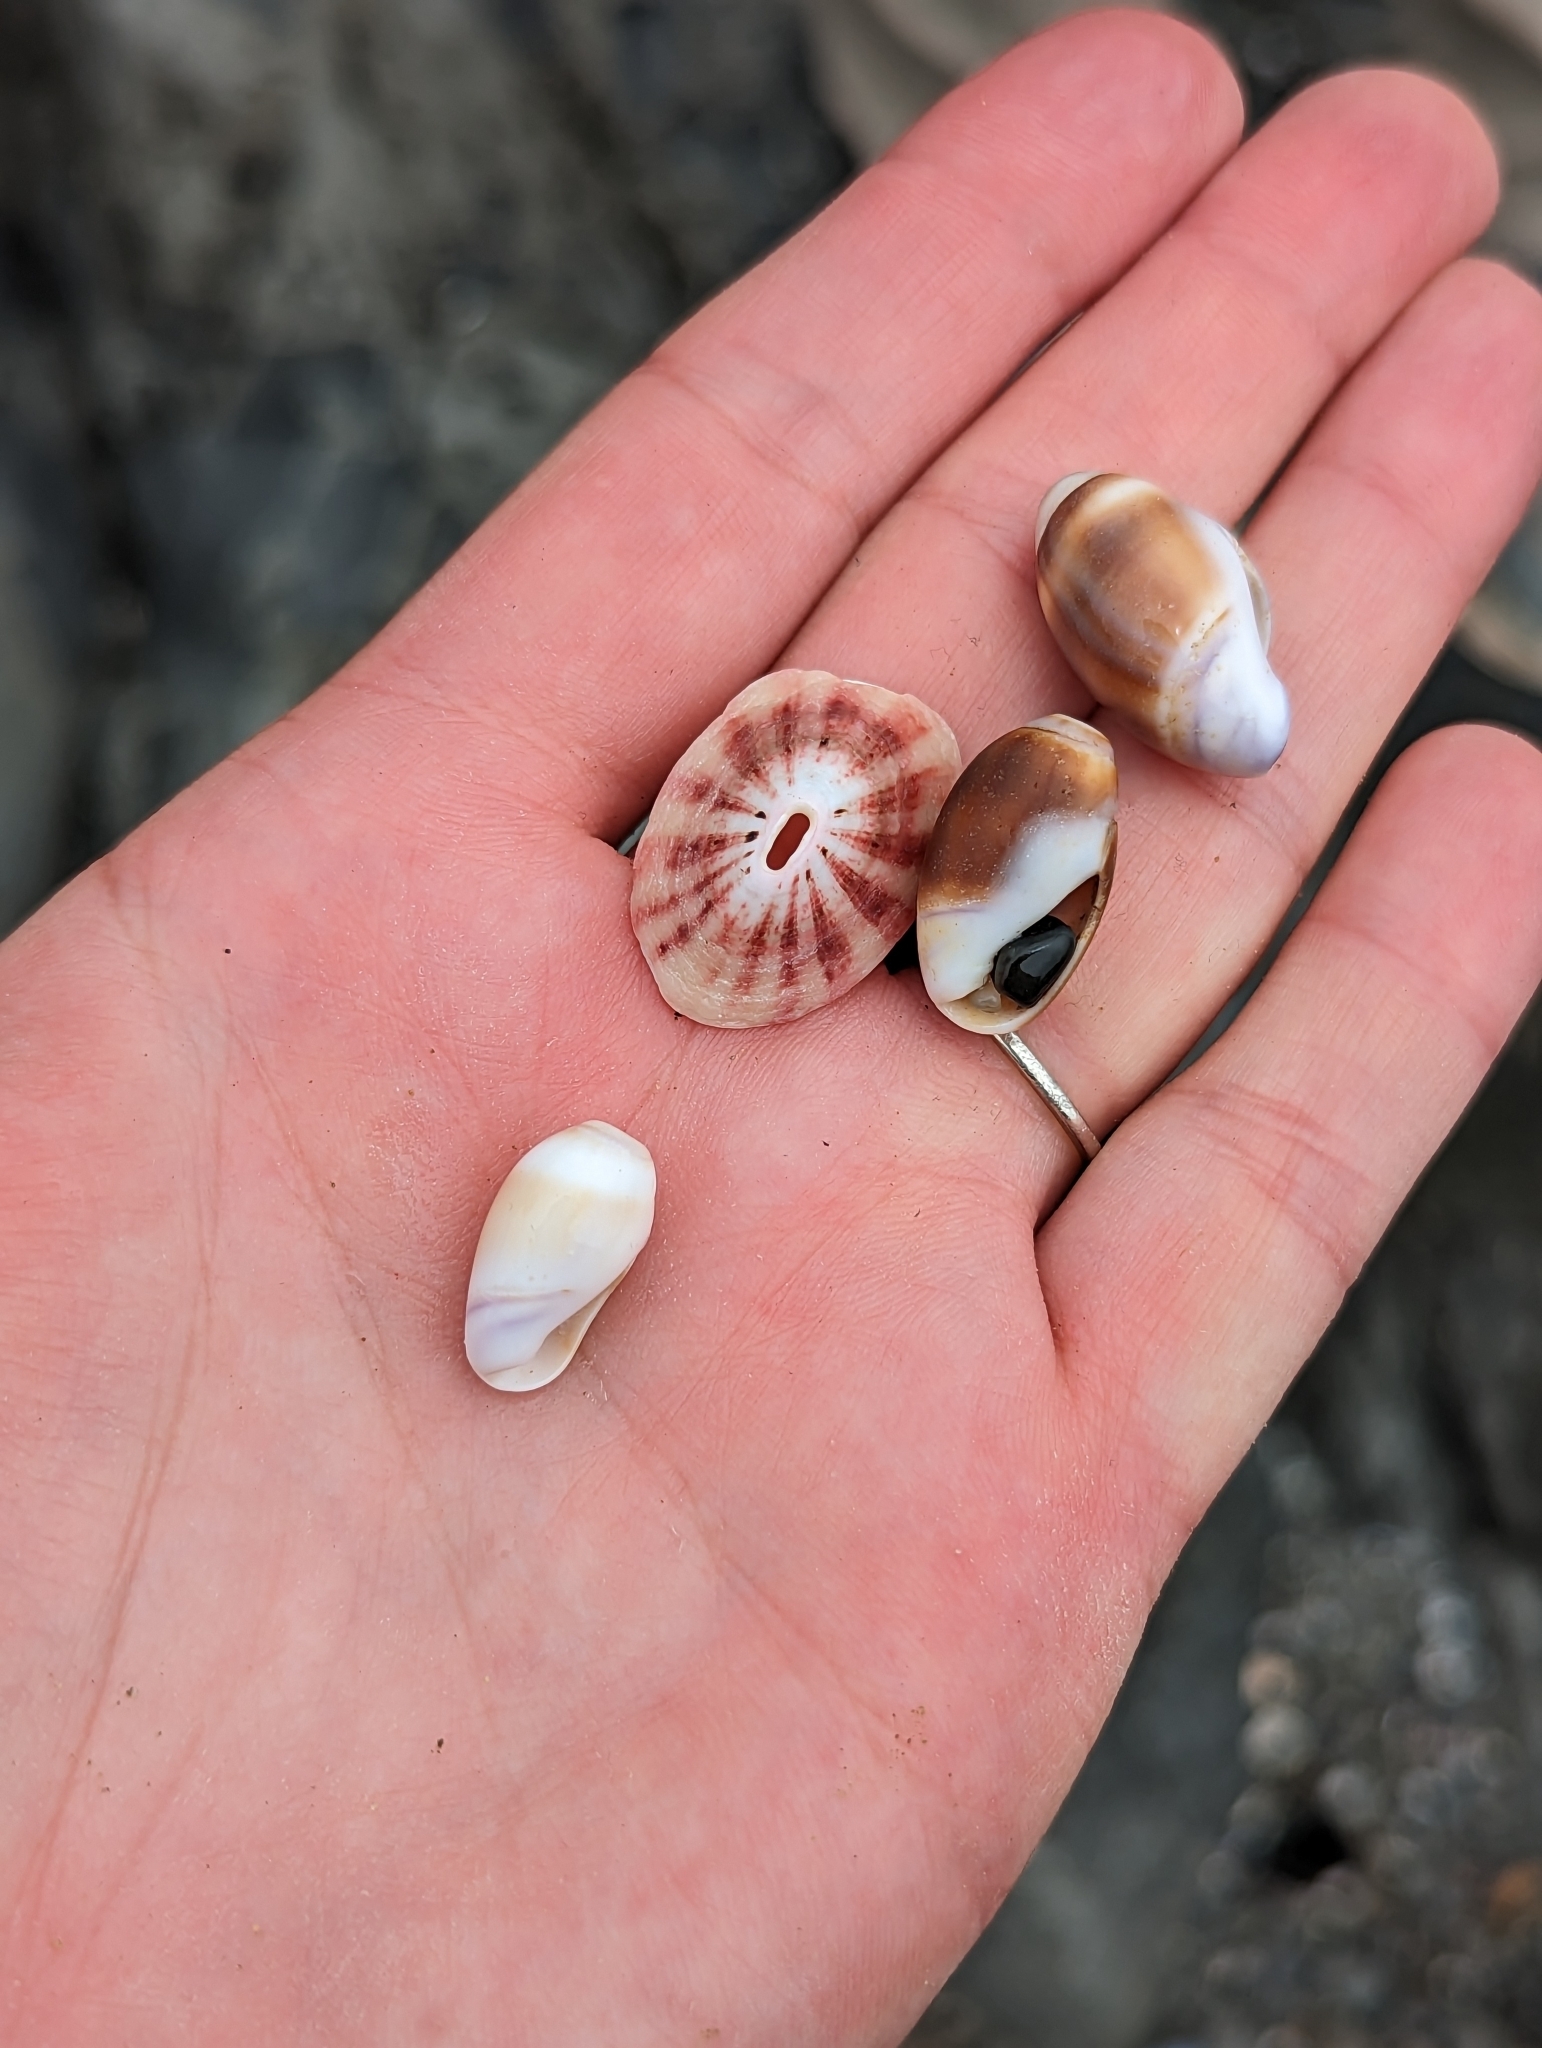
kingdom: Animalia
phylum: Mollusca
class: Gastropoda
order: Lepetellida
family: Fissurellidae
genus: Fissurella
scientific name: Fissurella volcano
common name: Volcano keyhole limpet
